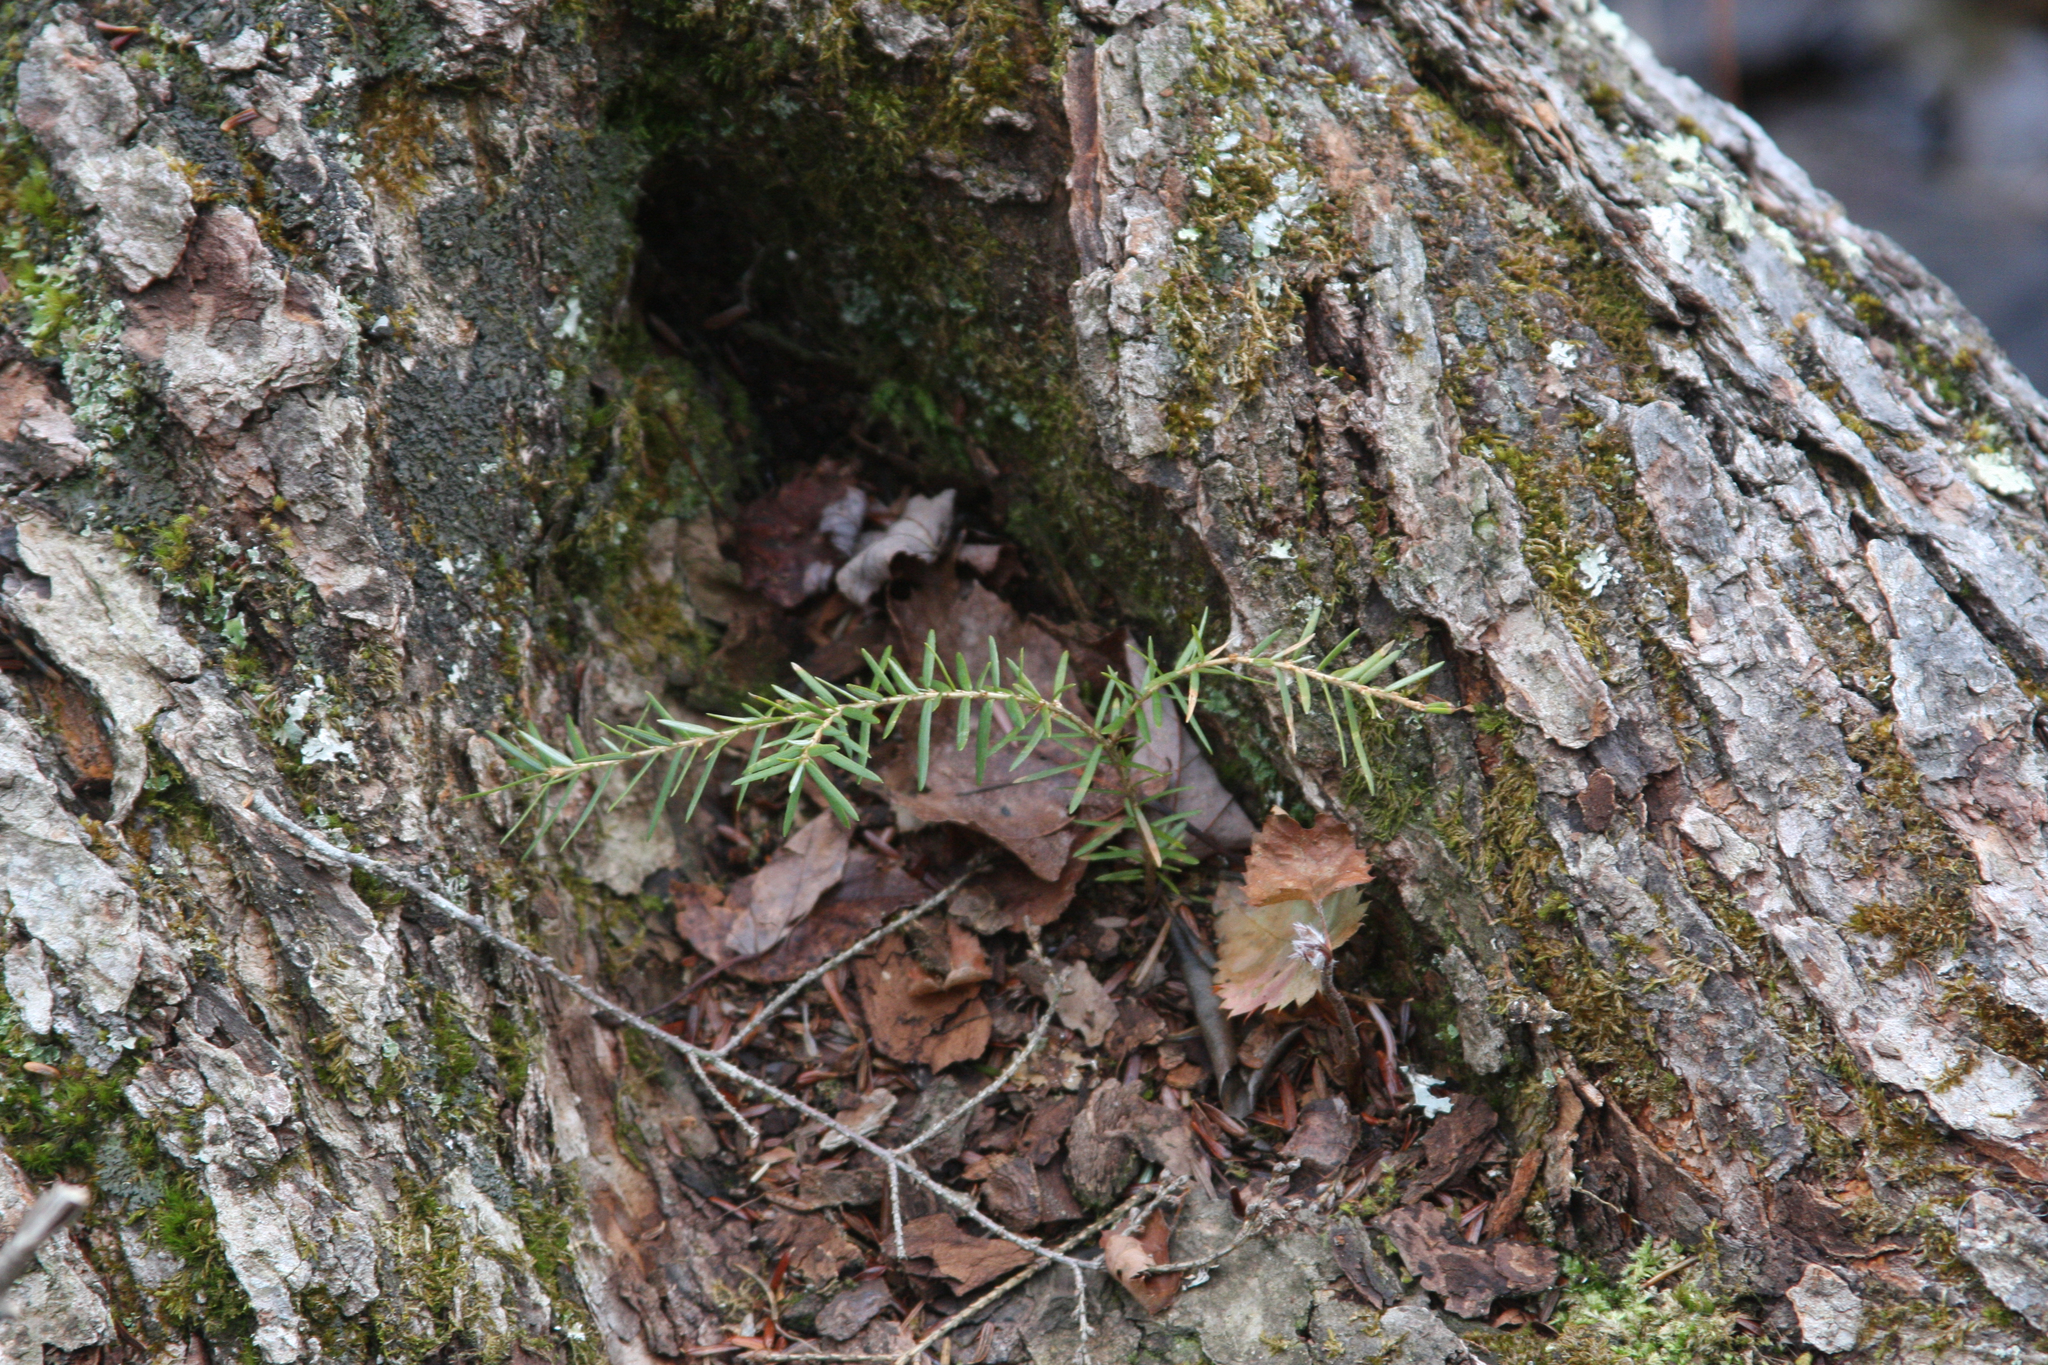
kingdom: Plantae
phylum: Tracheophyta
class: Pinopsida
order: Pinales
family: Pinaceae
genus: Tsuga
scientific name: Tsuga canadensis
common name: Eastern hemlock
